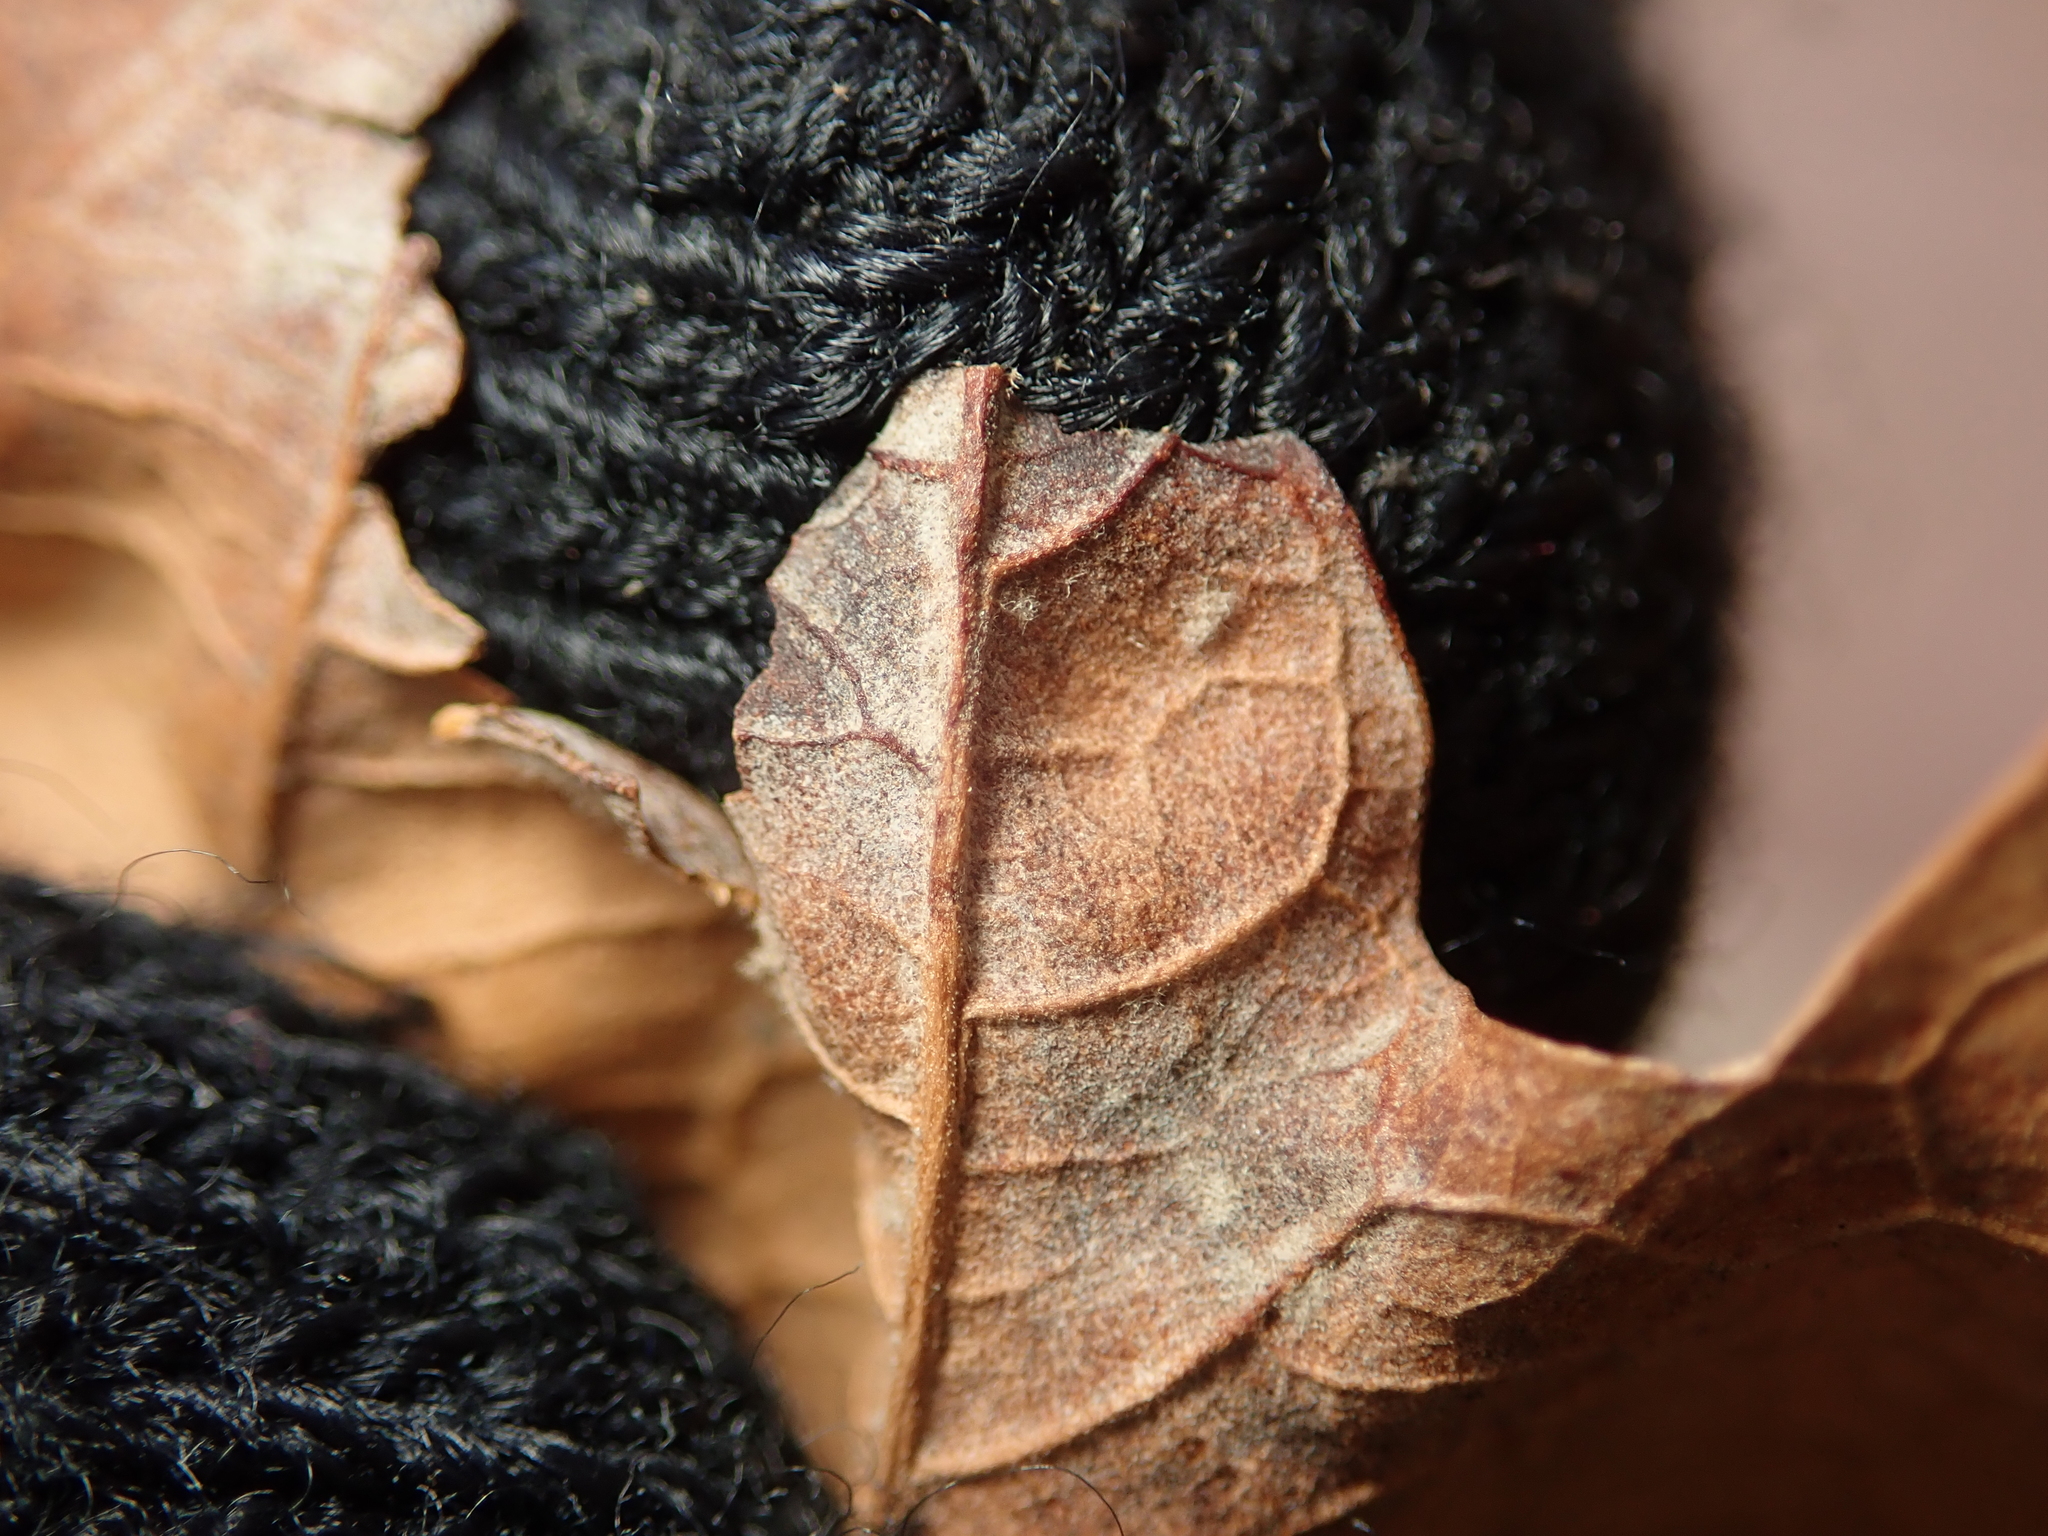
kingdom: Fungi
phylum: Ascomycota
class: Leotiomycetes
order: Helotiales
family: Erysiphaceae
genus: Erysiphe
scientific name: Erysiphe platani
